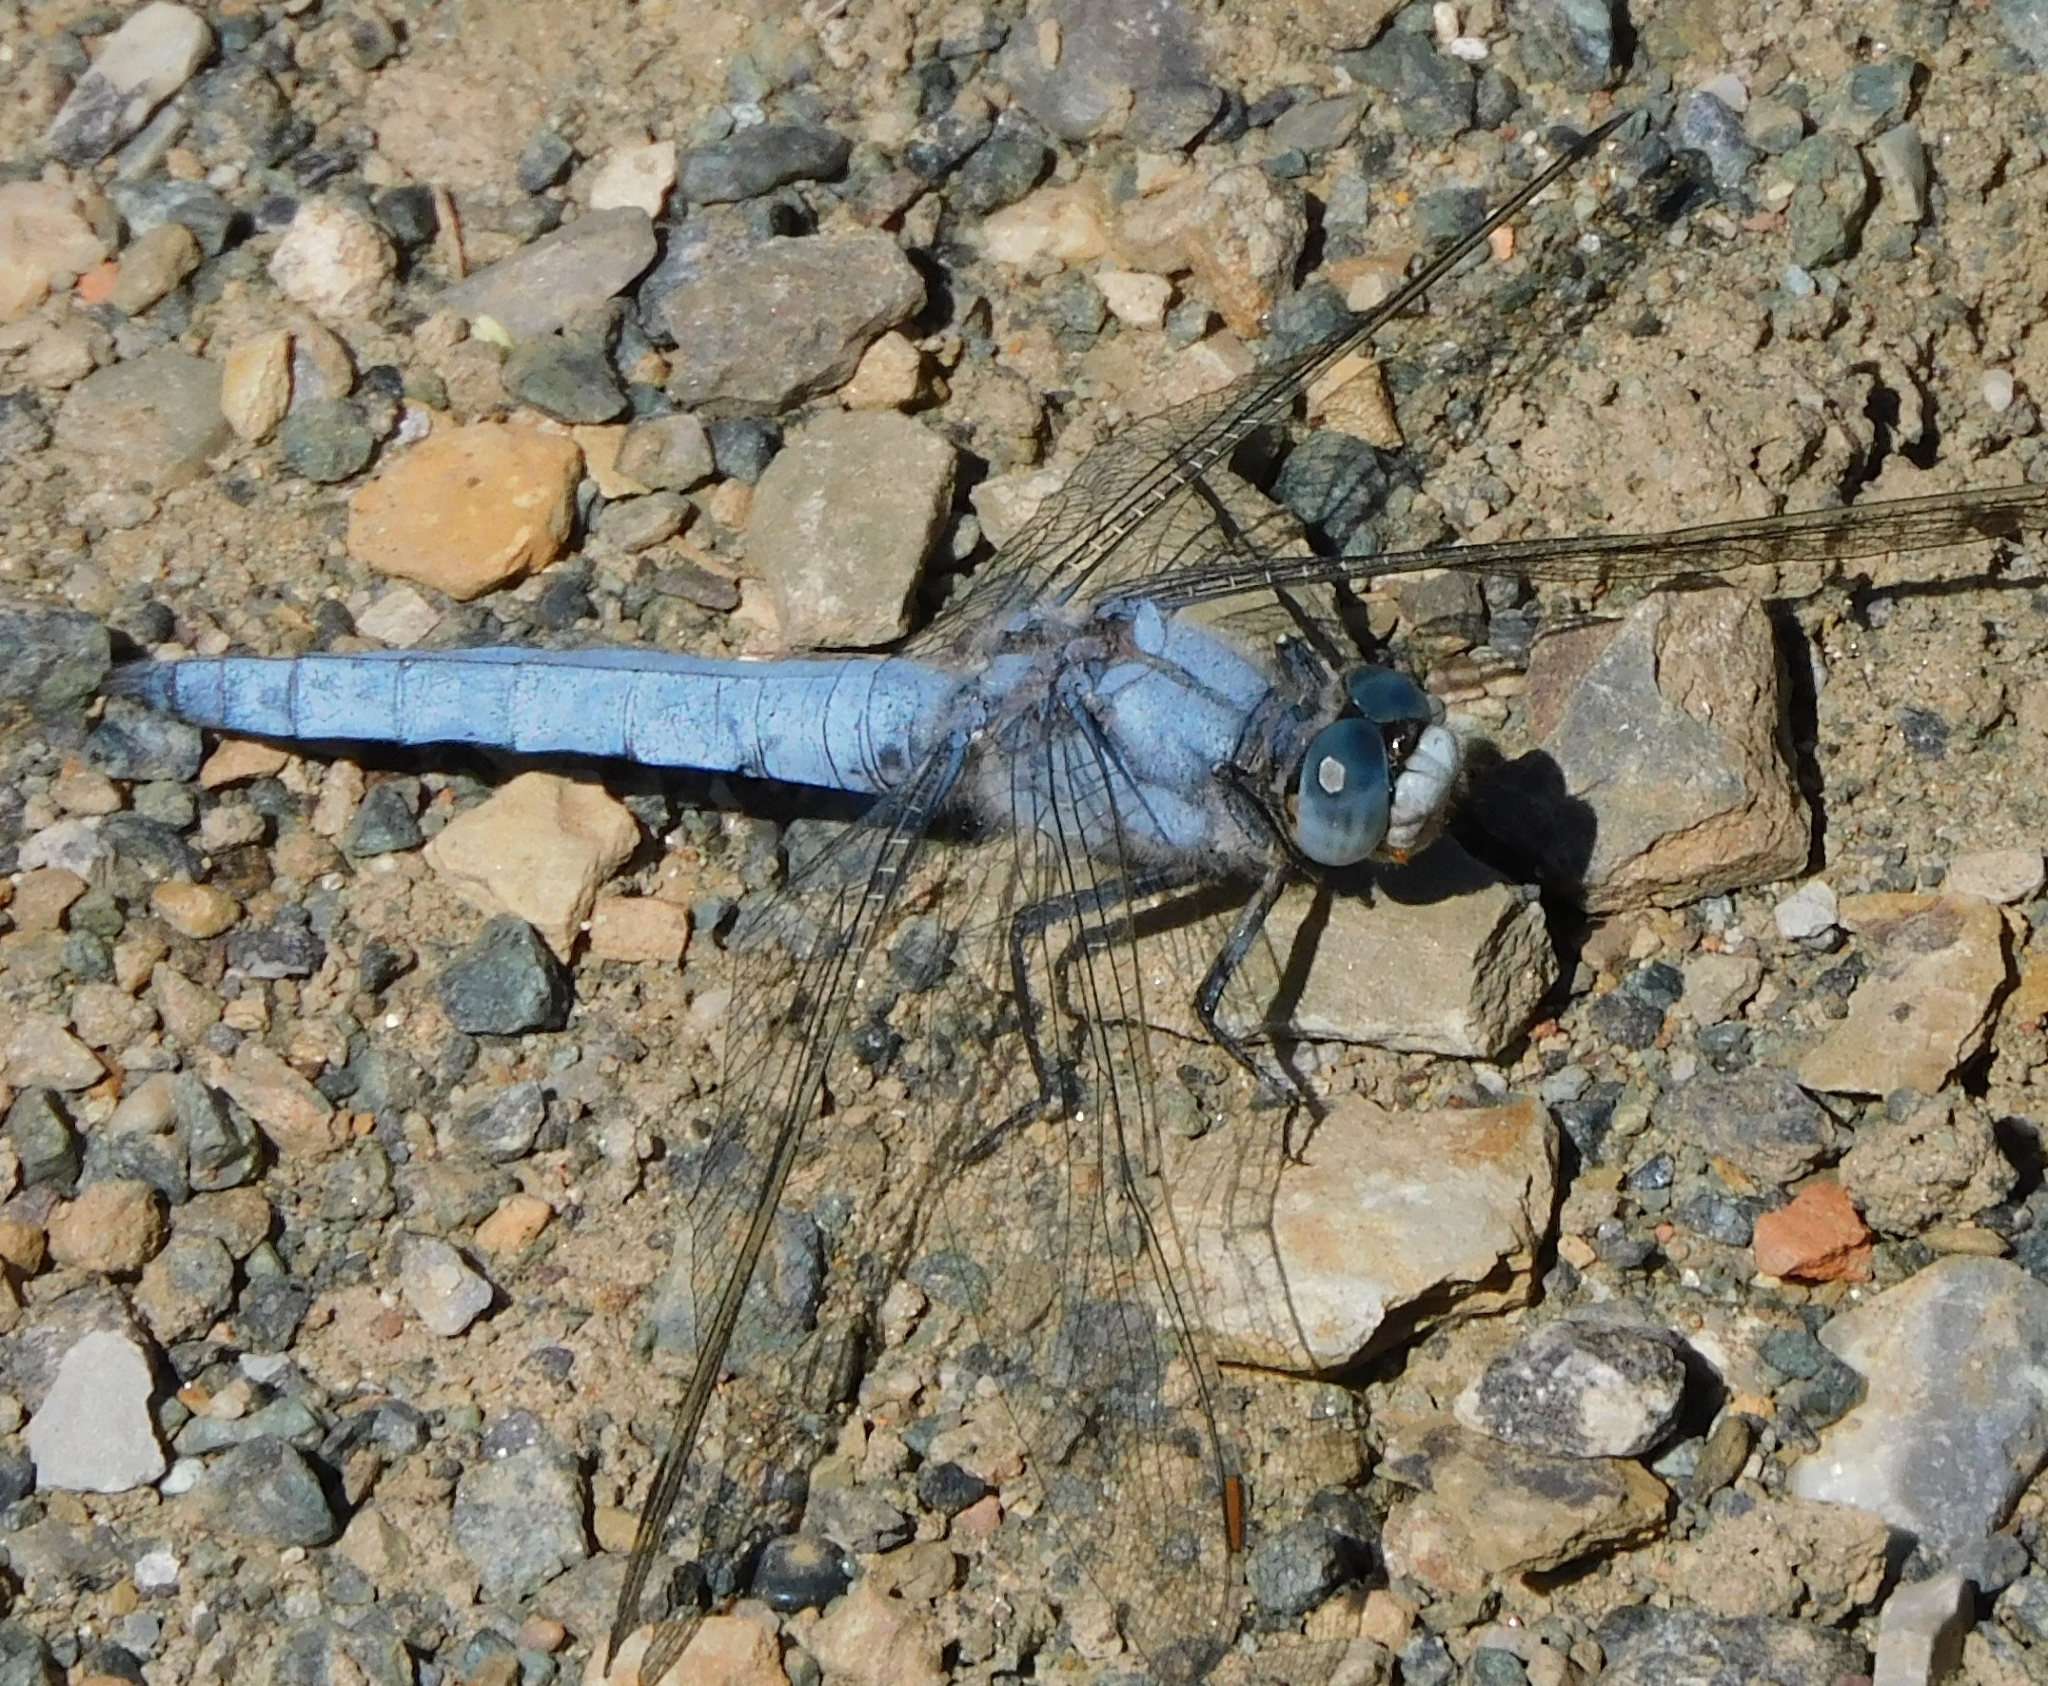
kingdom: Animalia
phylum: Arthropoda
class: Insecta
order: Odonata
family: Libellulidae
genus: Orthetrum
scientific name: Orthetrum brunneum
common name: Southern skimmer
